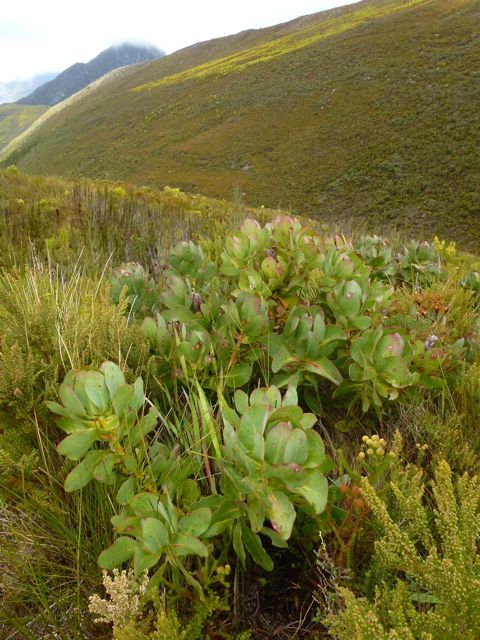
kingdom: Plantae
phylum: Tracheophyta
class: Magnoliopsida
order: Proteales
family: Proteaceae
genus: Protea
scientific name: Protea grandiceps
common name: Red sugarbush
